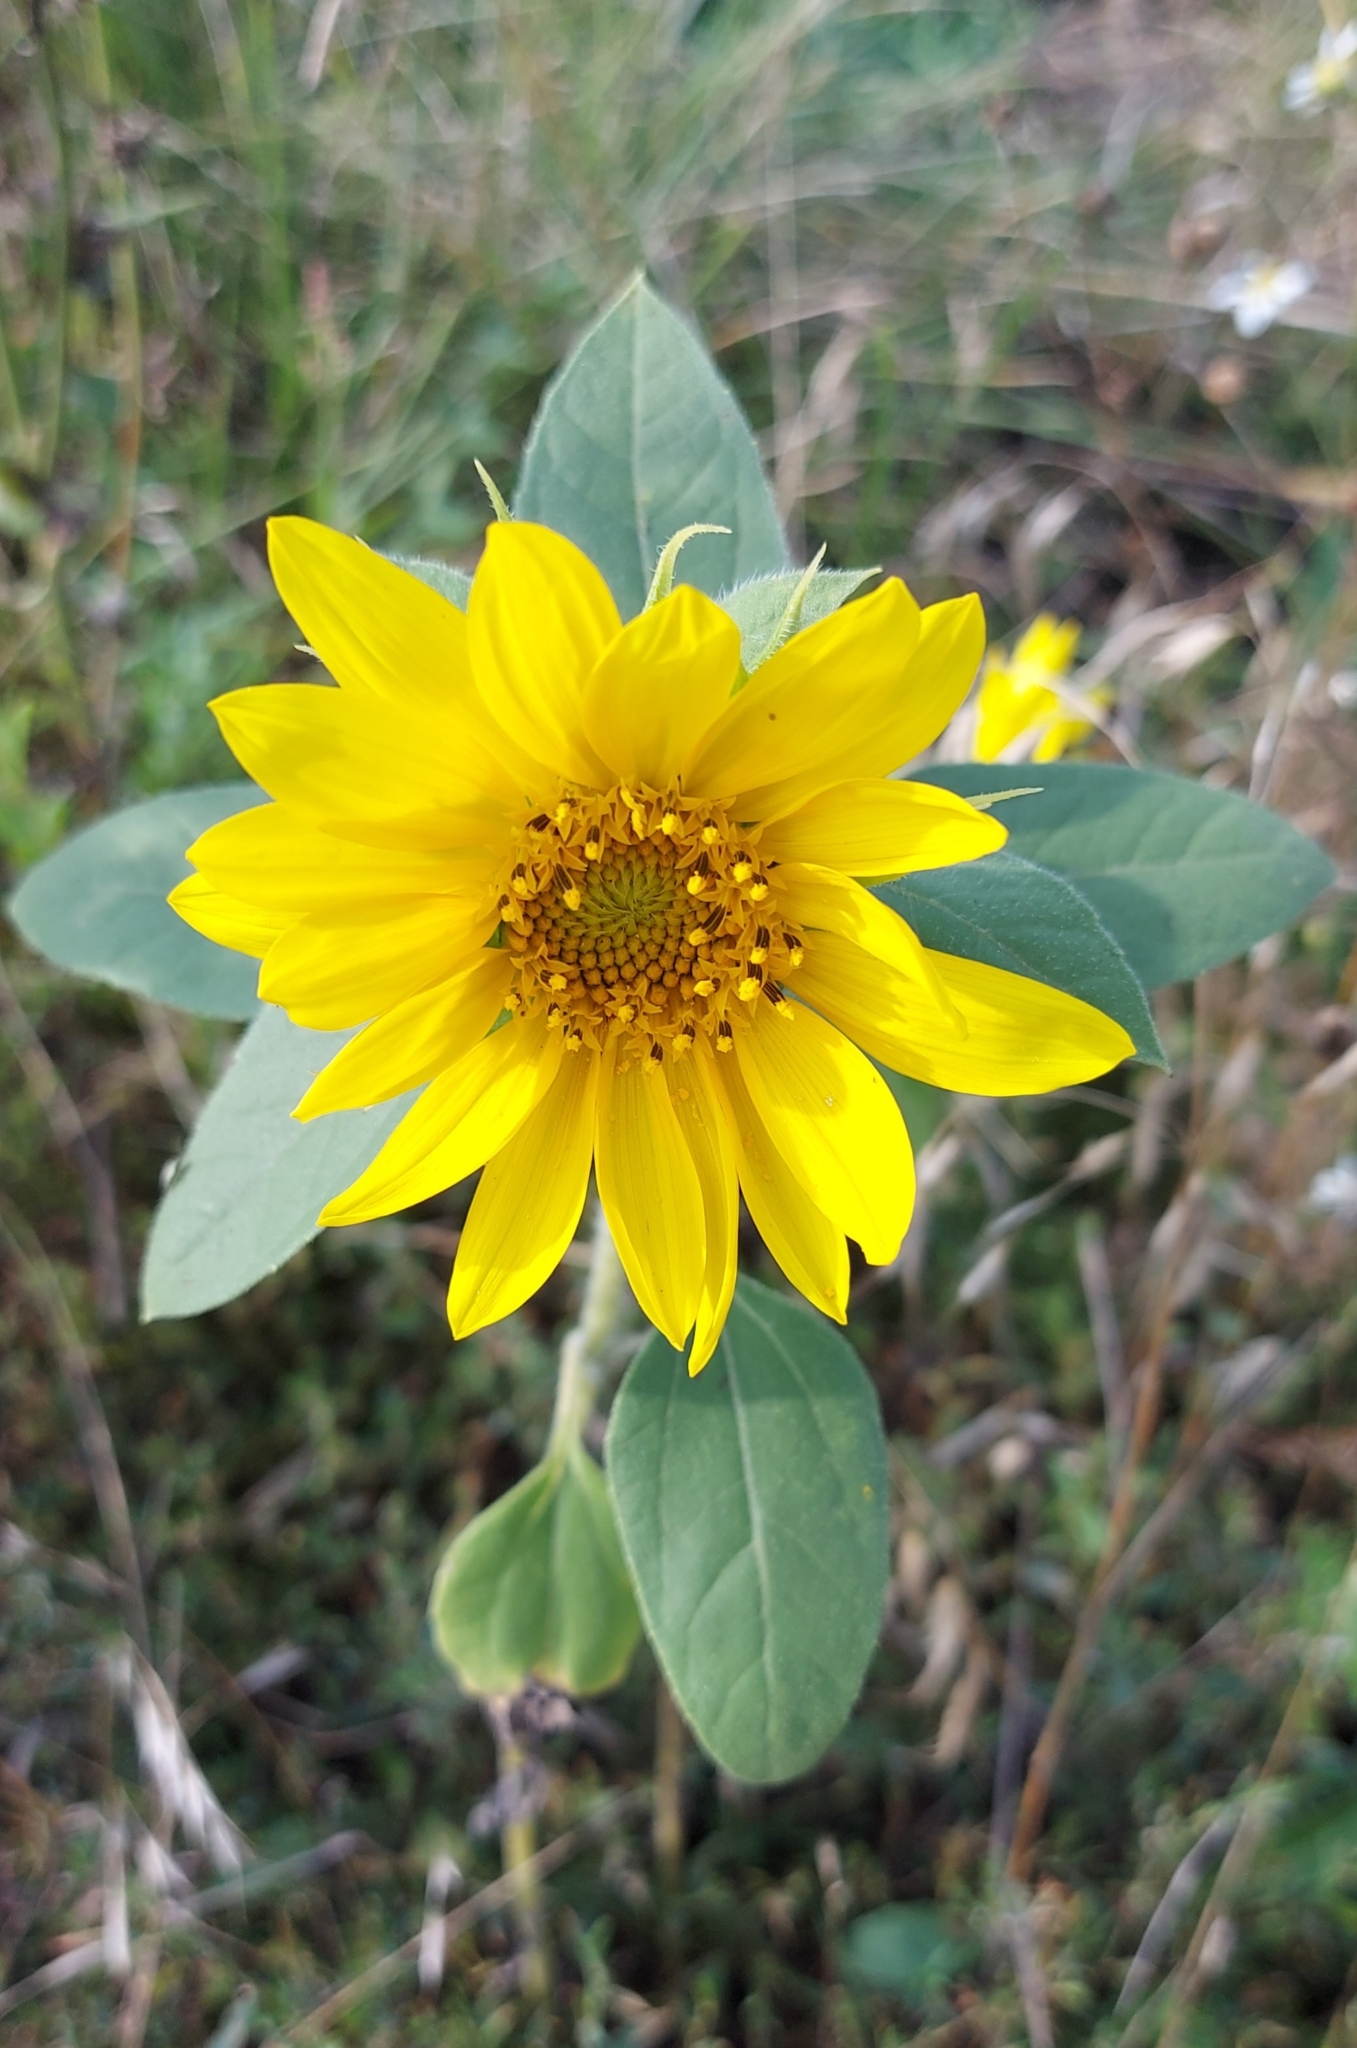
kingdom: Plantae
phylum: Tracheophyta
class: Magnoliopsida
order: Asterales
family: Asteraceae
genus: Helianthus
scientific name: Helianthus annuus
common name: Sunflower
